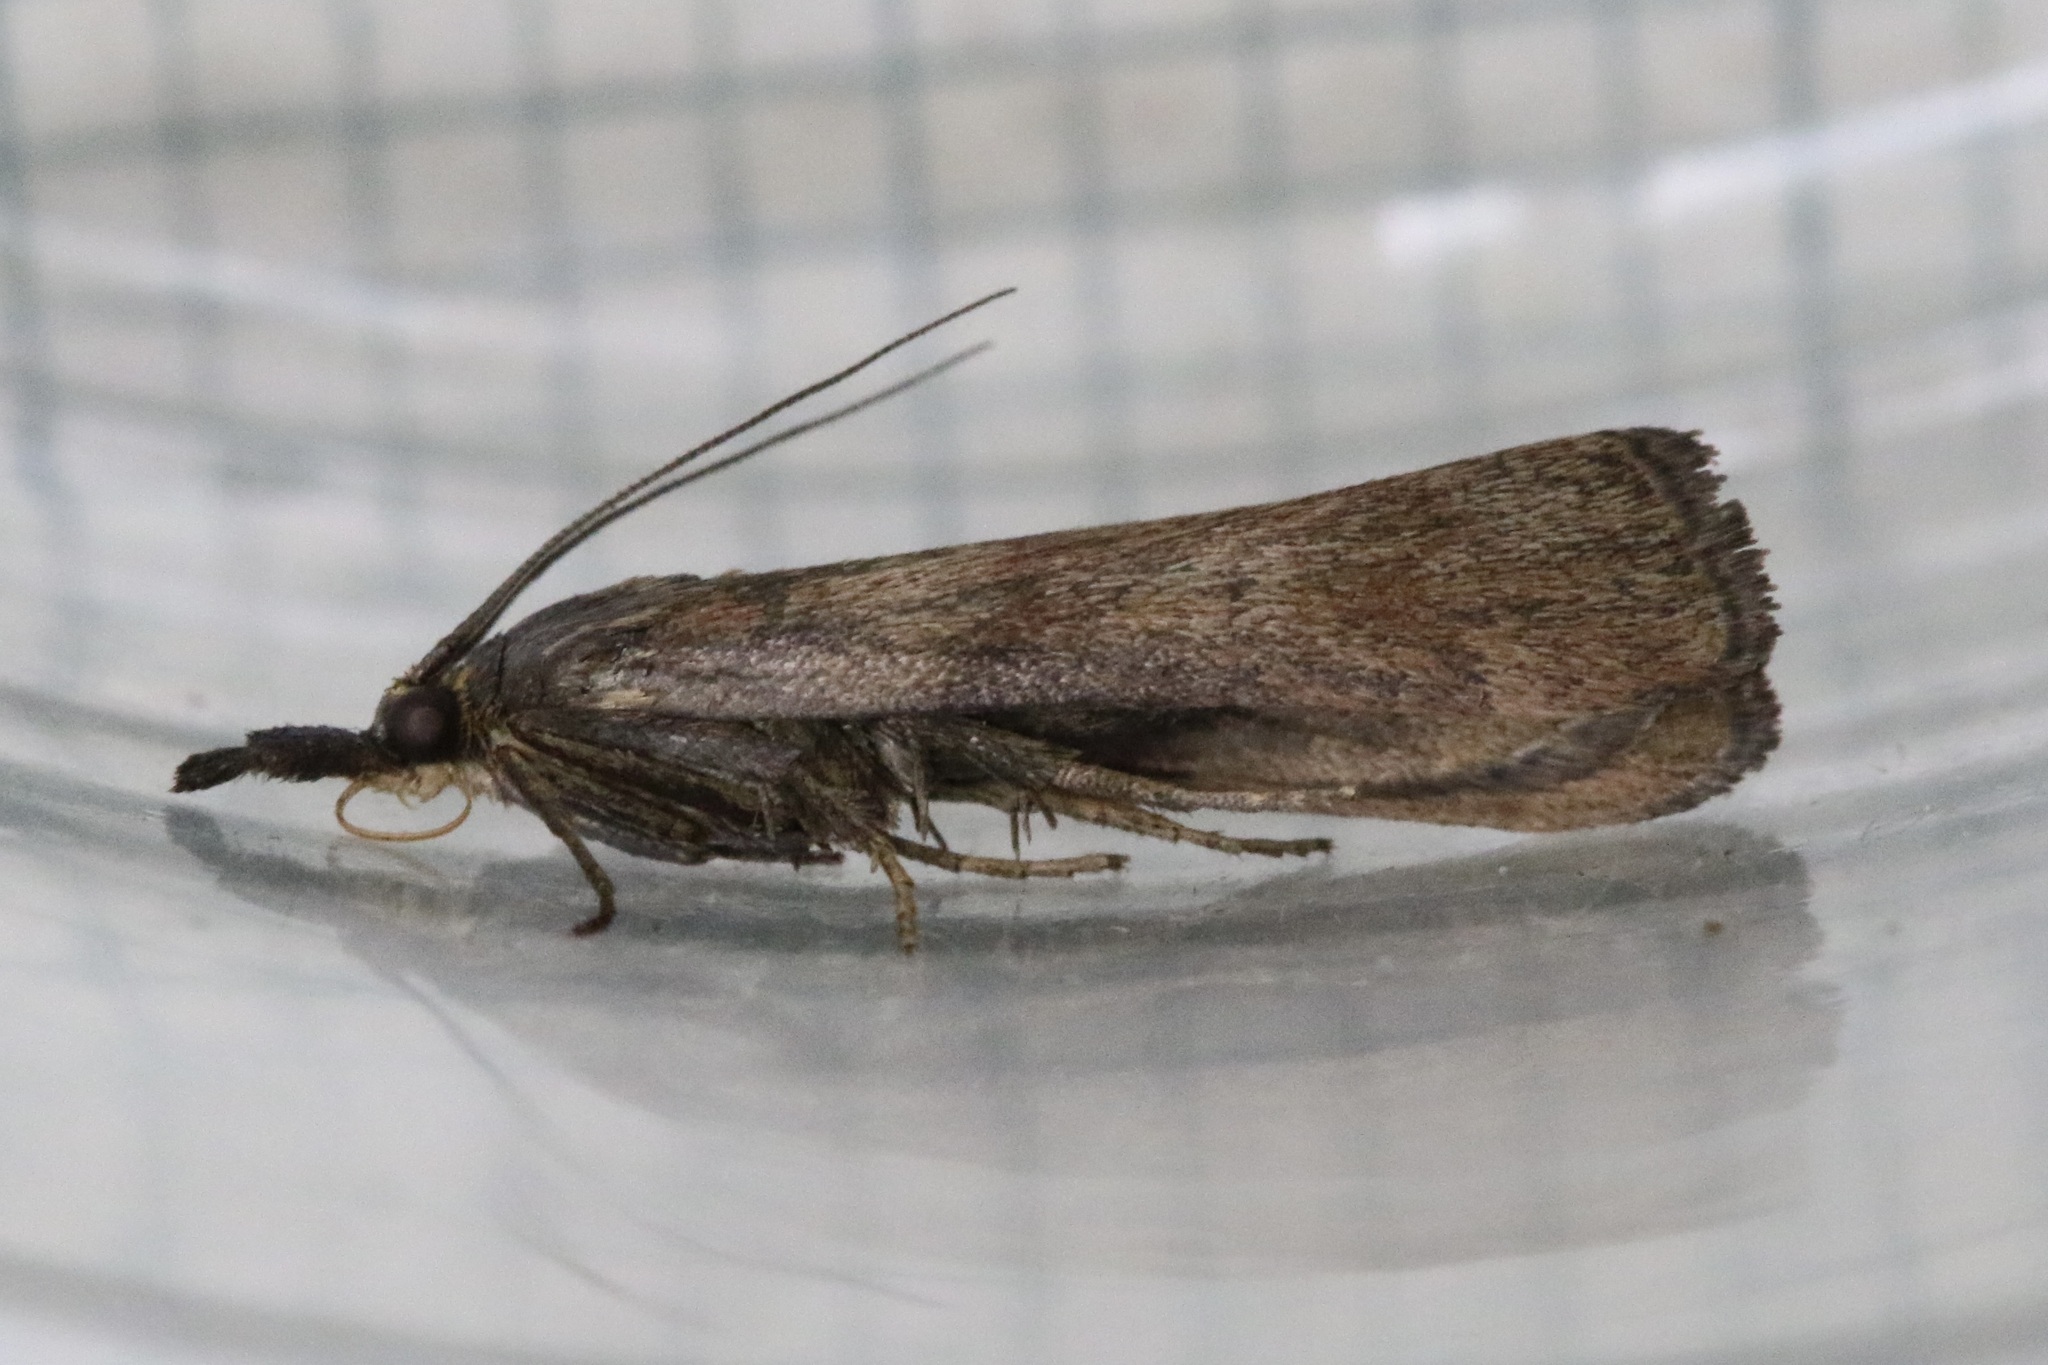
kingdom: Animalia
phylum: Arthropoda
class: Insecta
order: Lepidoptera
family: Pyralidae
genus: Hypochalcia
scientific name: Hypochalcia ahenella
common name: Dingy knot-horn
